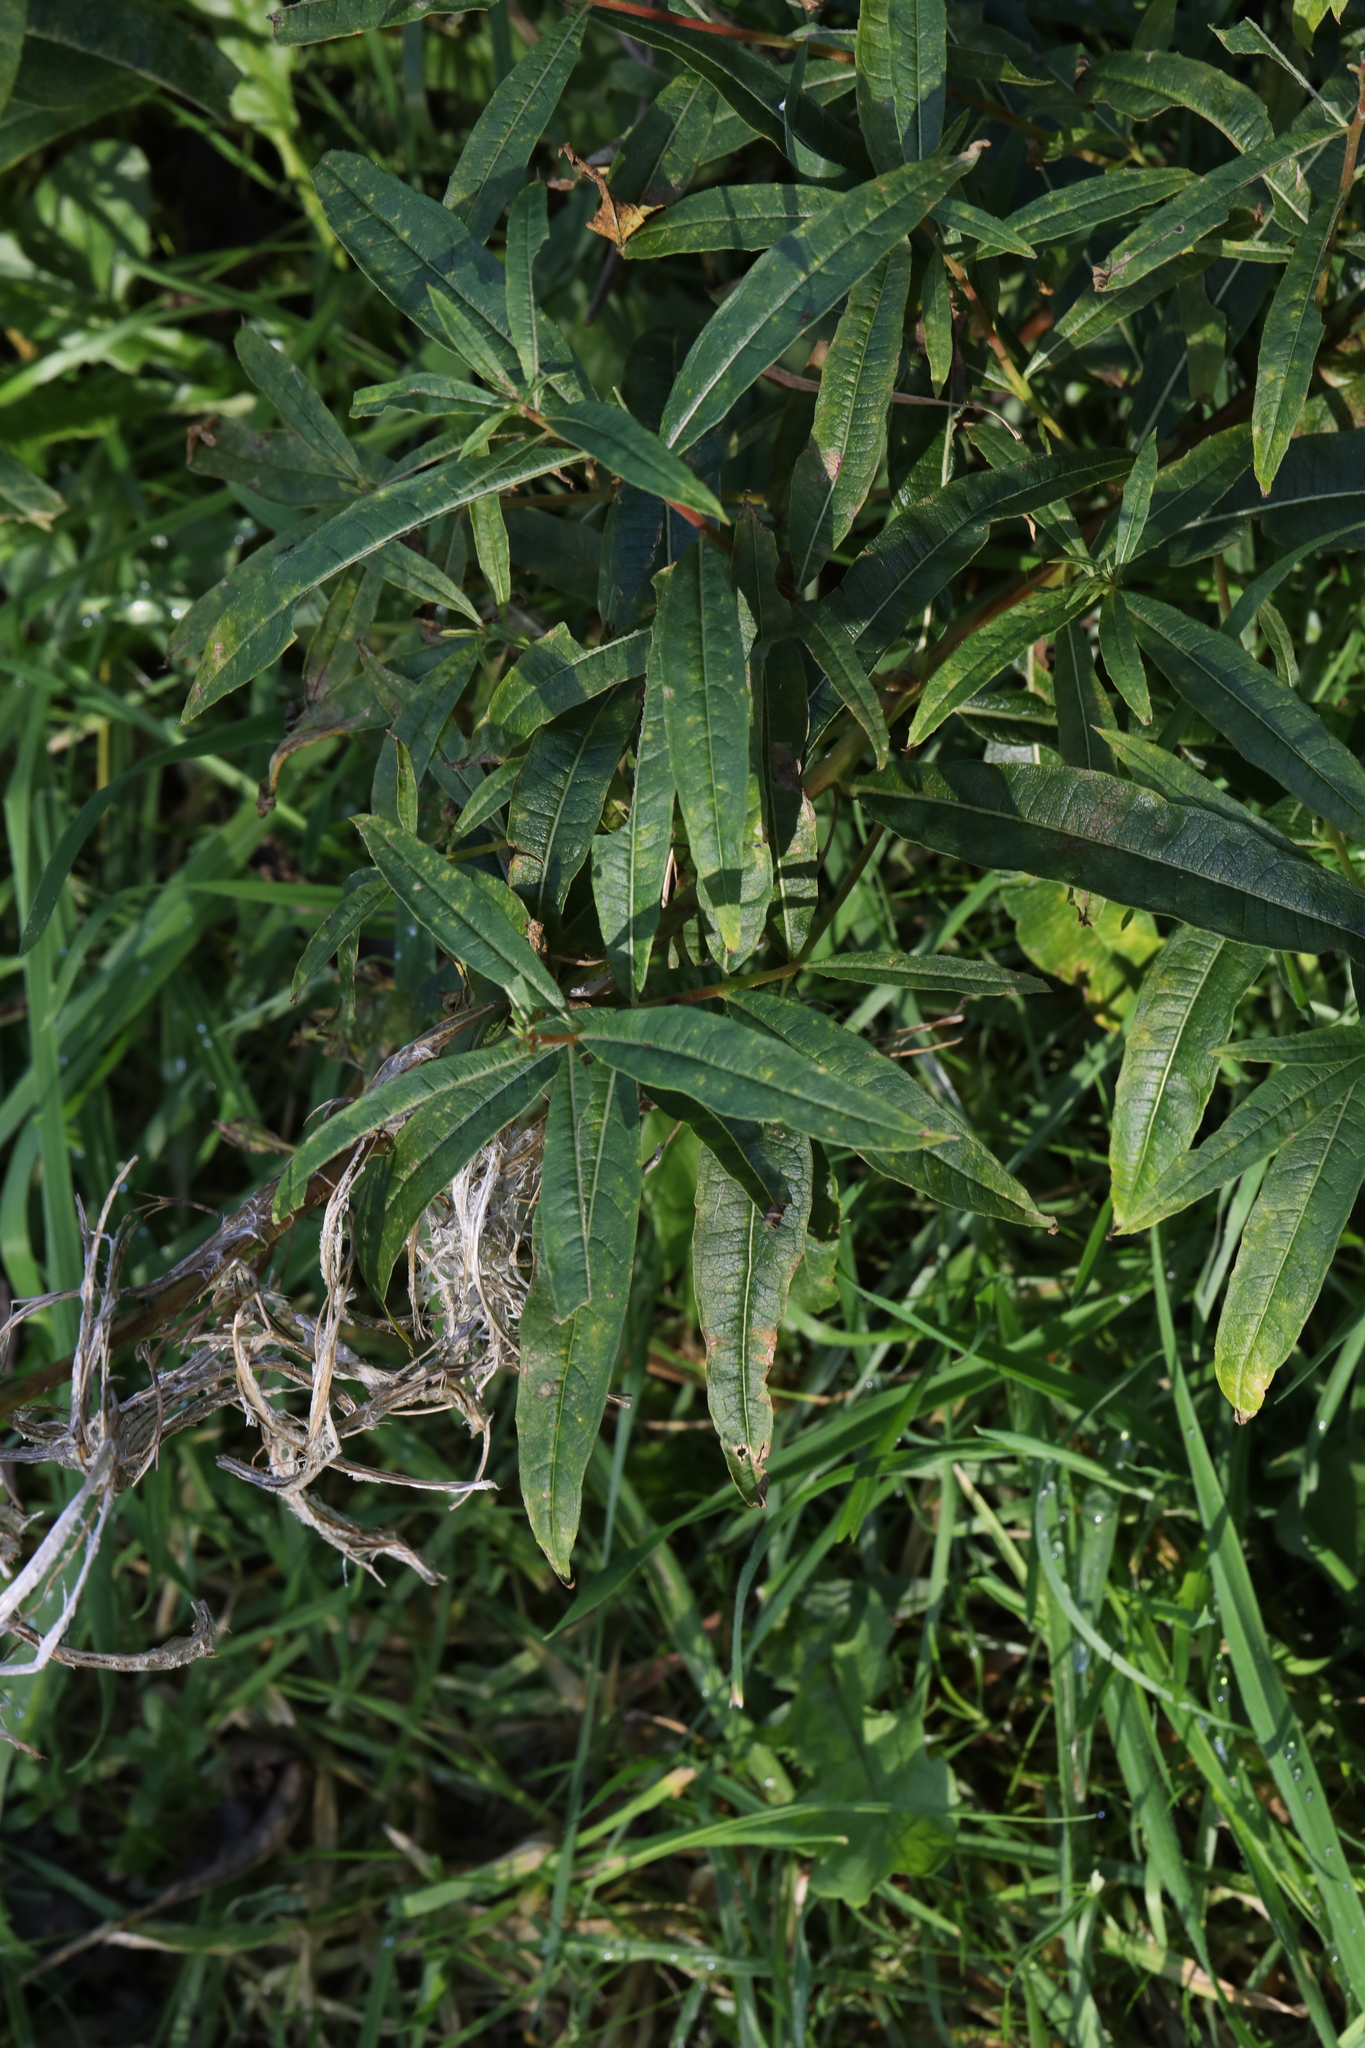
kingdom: Plantae
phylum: Tracheophyta
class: Magnoliopsida
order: Myrtales
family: Onagraceae
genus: Chamaenerion
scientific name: Chamaenerion angustifolium
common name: Fireweed
